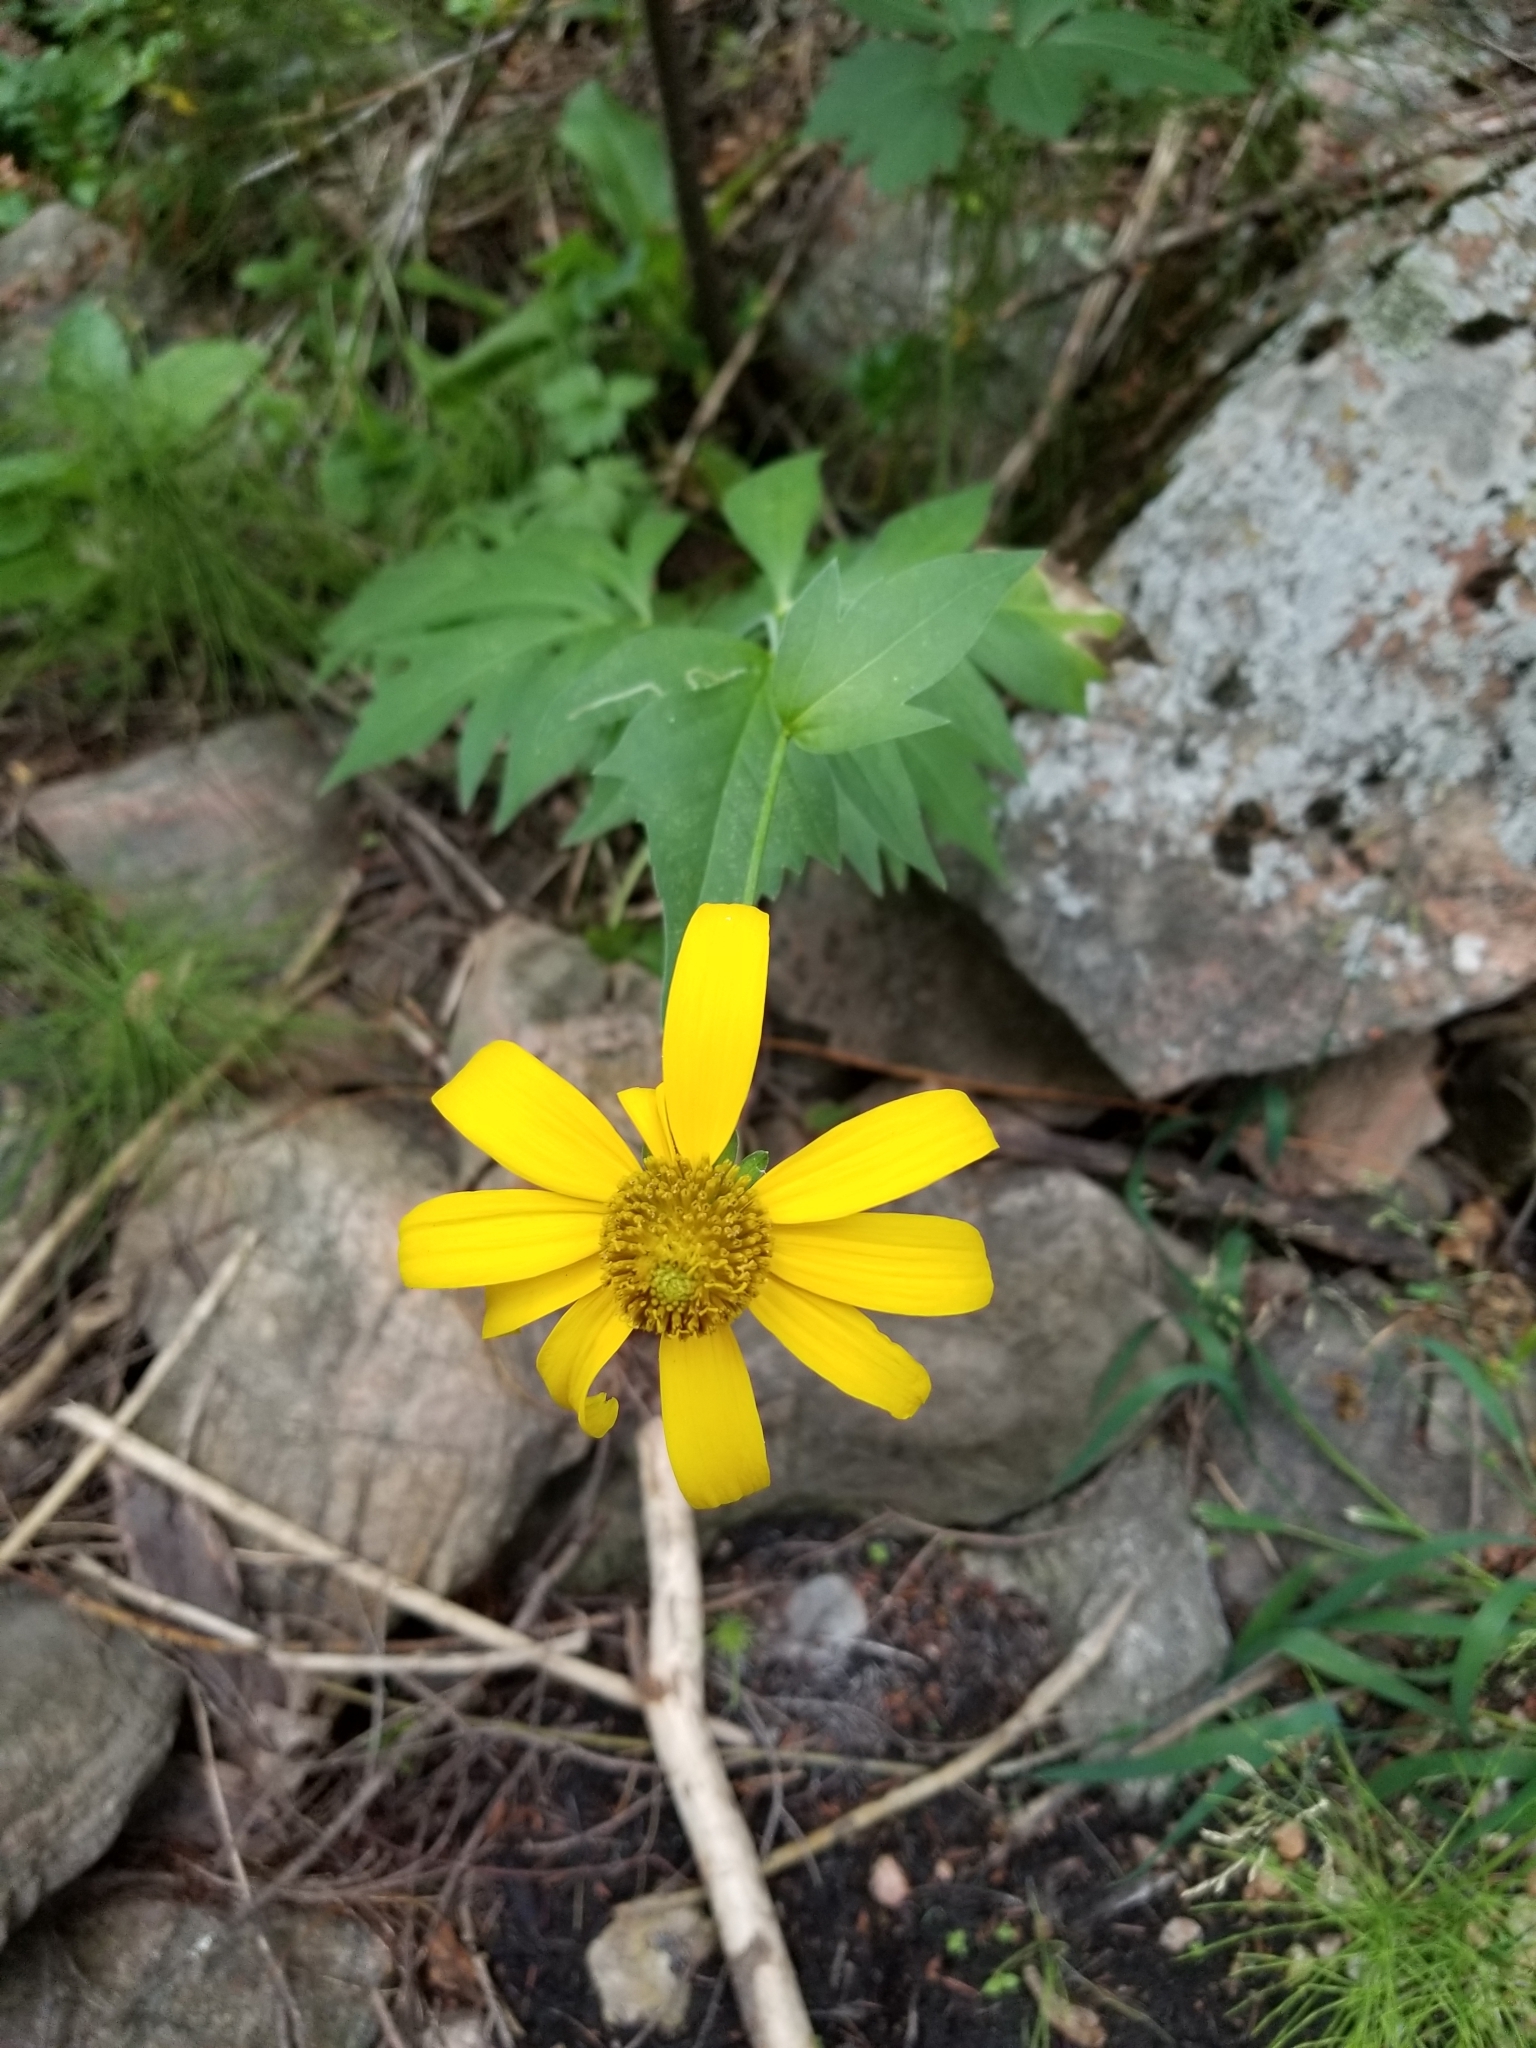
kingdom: Plantae
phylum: Tracheophyta
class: Magnoliopsida
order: Asterales
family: Asteraceae
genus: Rudbeckia
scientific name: Rudbeckia laciniata
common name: Coneflower
